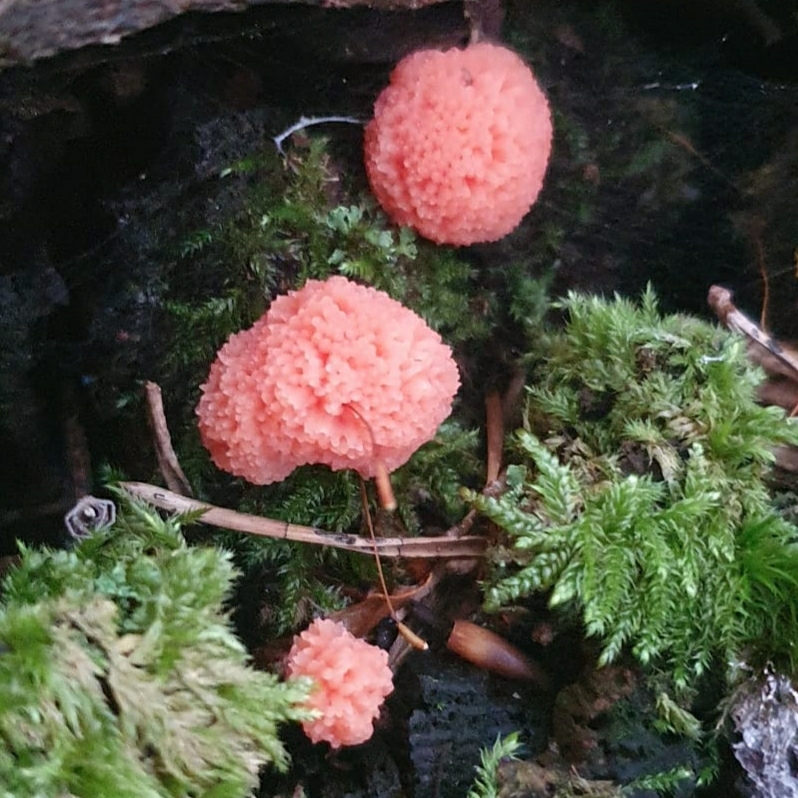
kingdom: Protozoa
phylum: Mycetozoa
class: Myxomycetes
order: Cribrariales
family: Tubiferaceae
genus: Tubifera
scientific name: Tubifera ferruginosa
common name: Red raspberry slime mold
